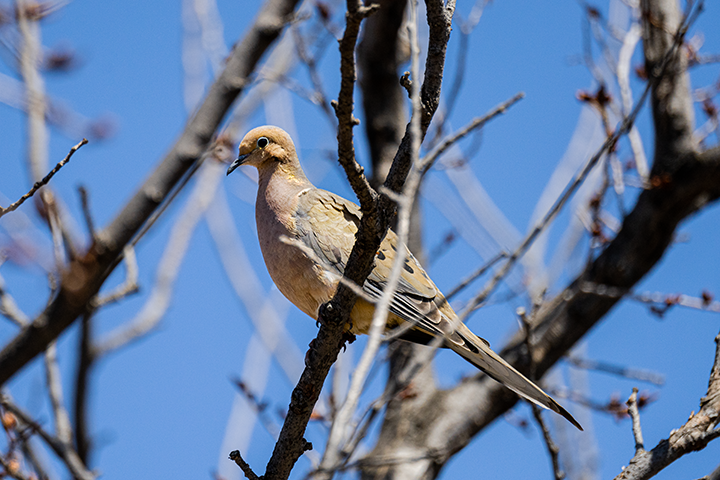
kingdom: Animalia
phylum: Chordata
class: Aves
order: Columbiformes
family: Columbidae
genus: Zenaida
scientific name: Zenaida macroura
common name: Mourning dove
